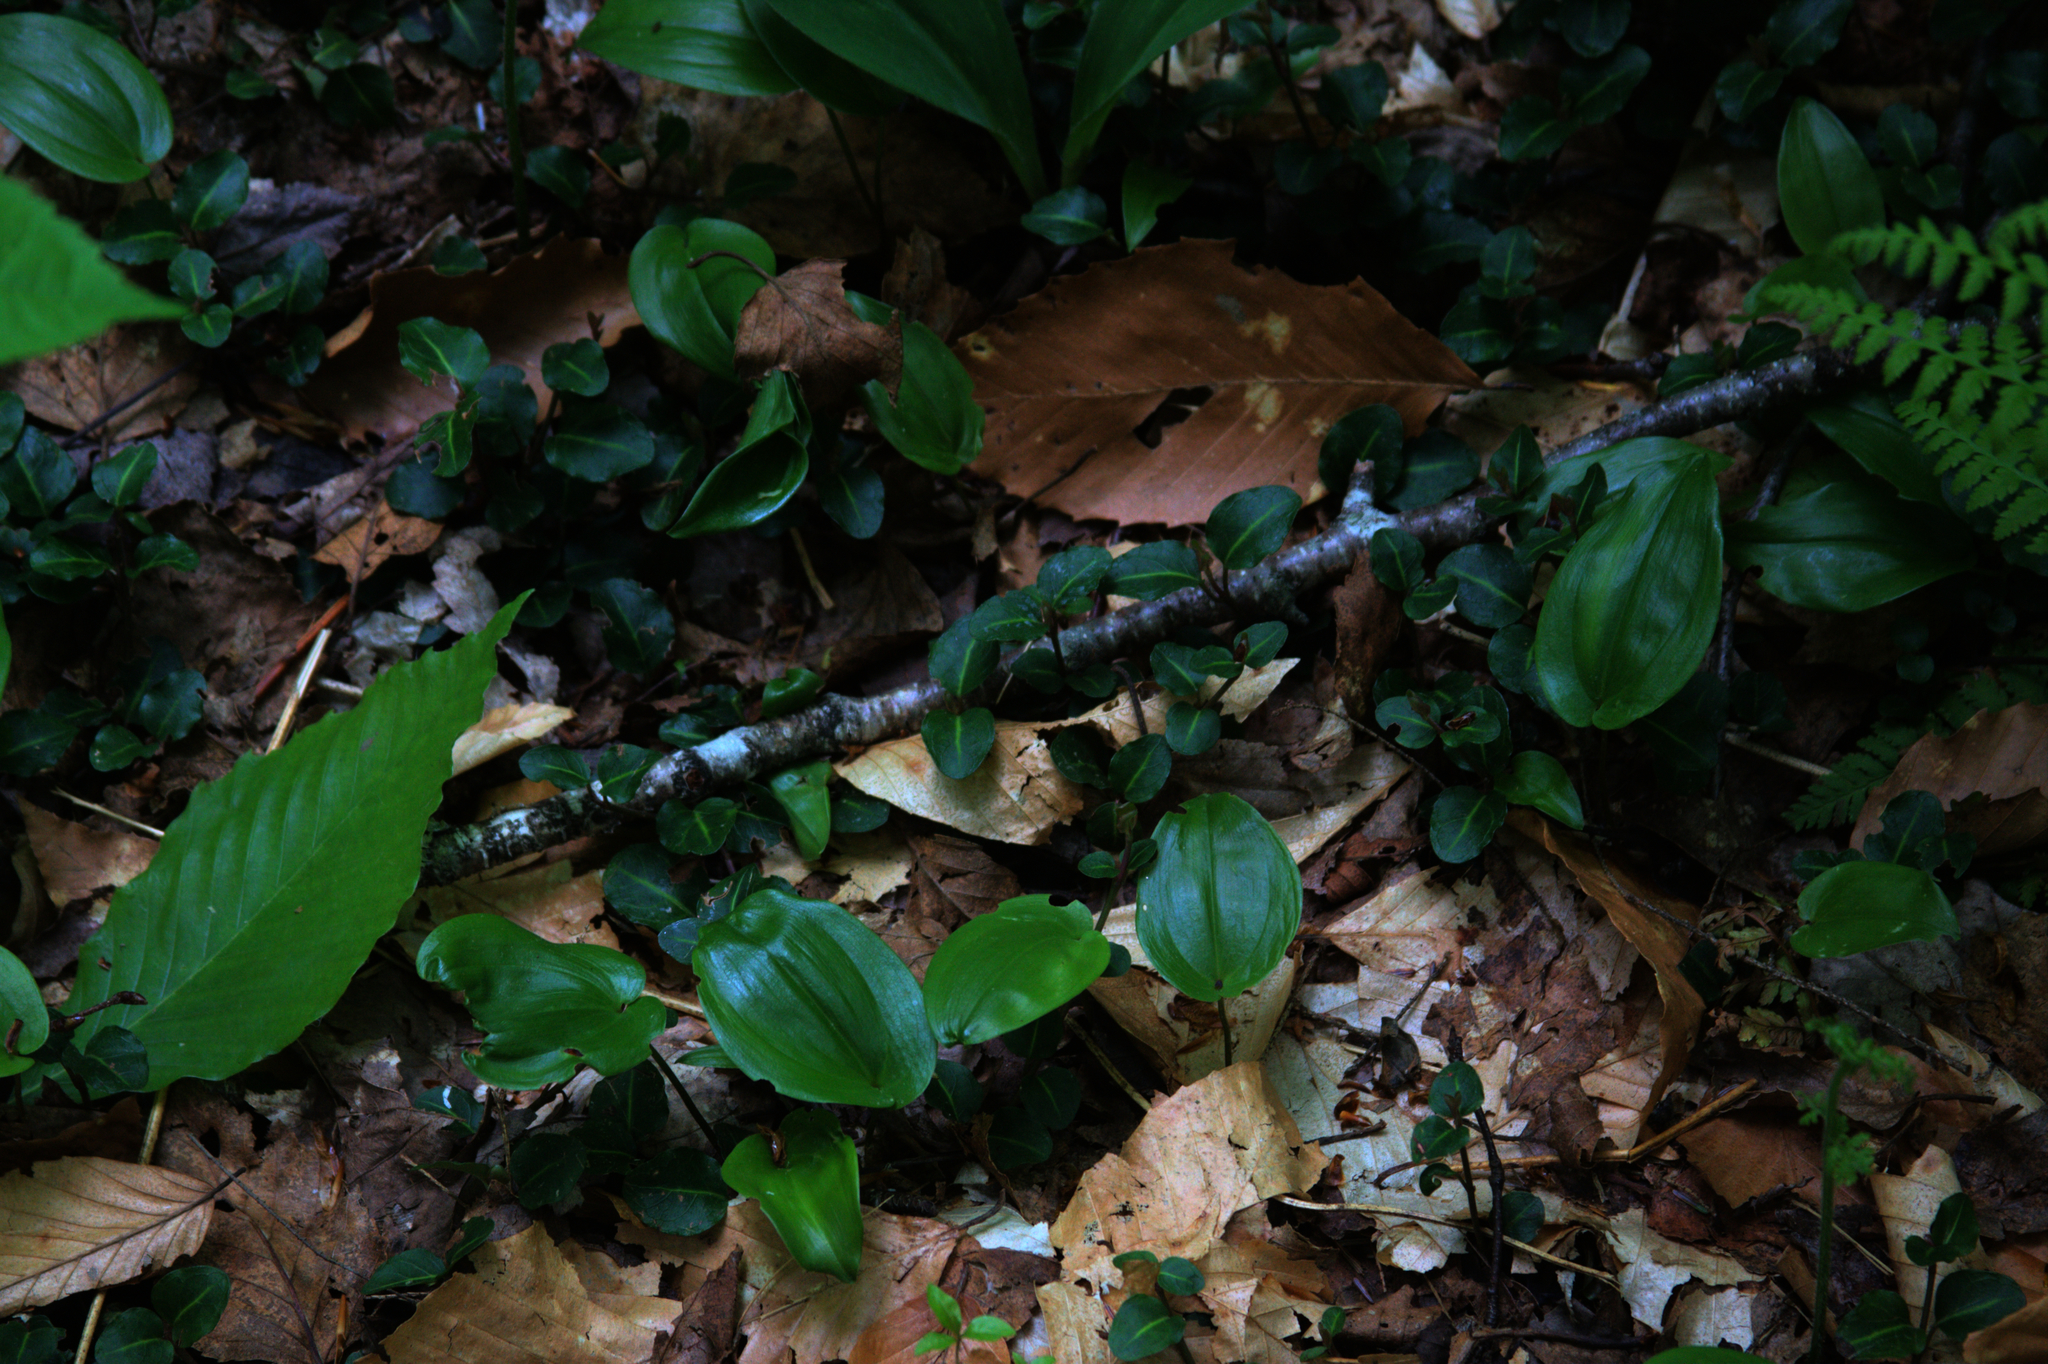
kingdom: Plantae
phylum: Tracheophyta
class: Liliopsida
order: Asparagales
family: Asparagaceae
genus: Maianthemum
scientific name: Maianthemum canadense
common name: False lily-of-the-valley
